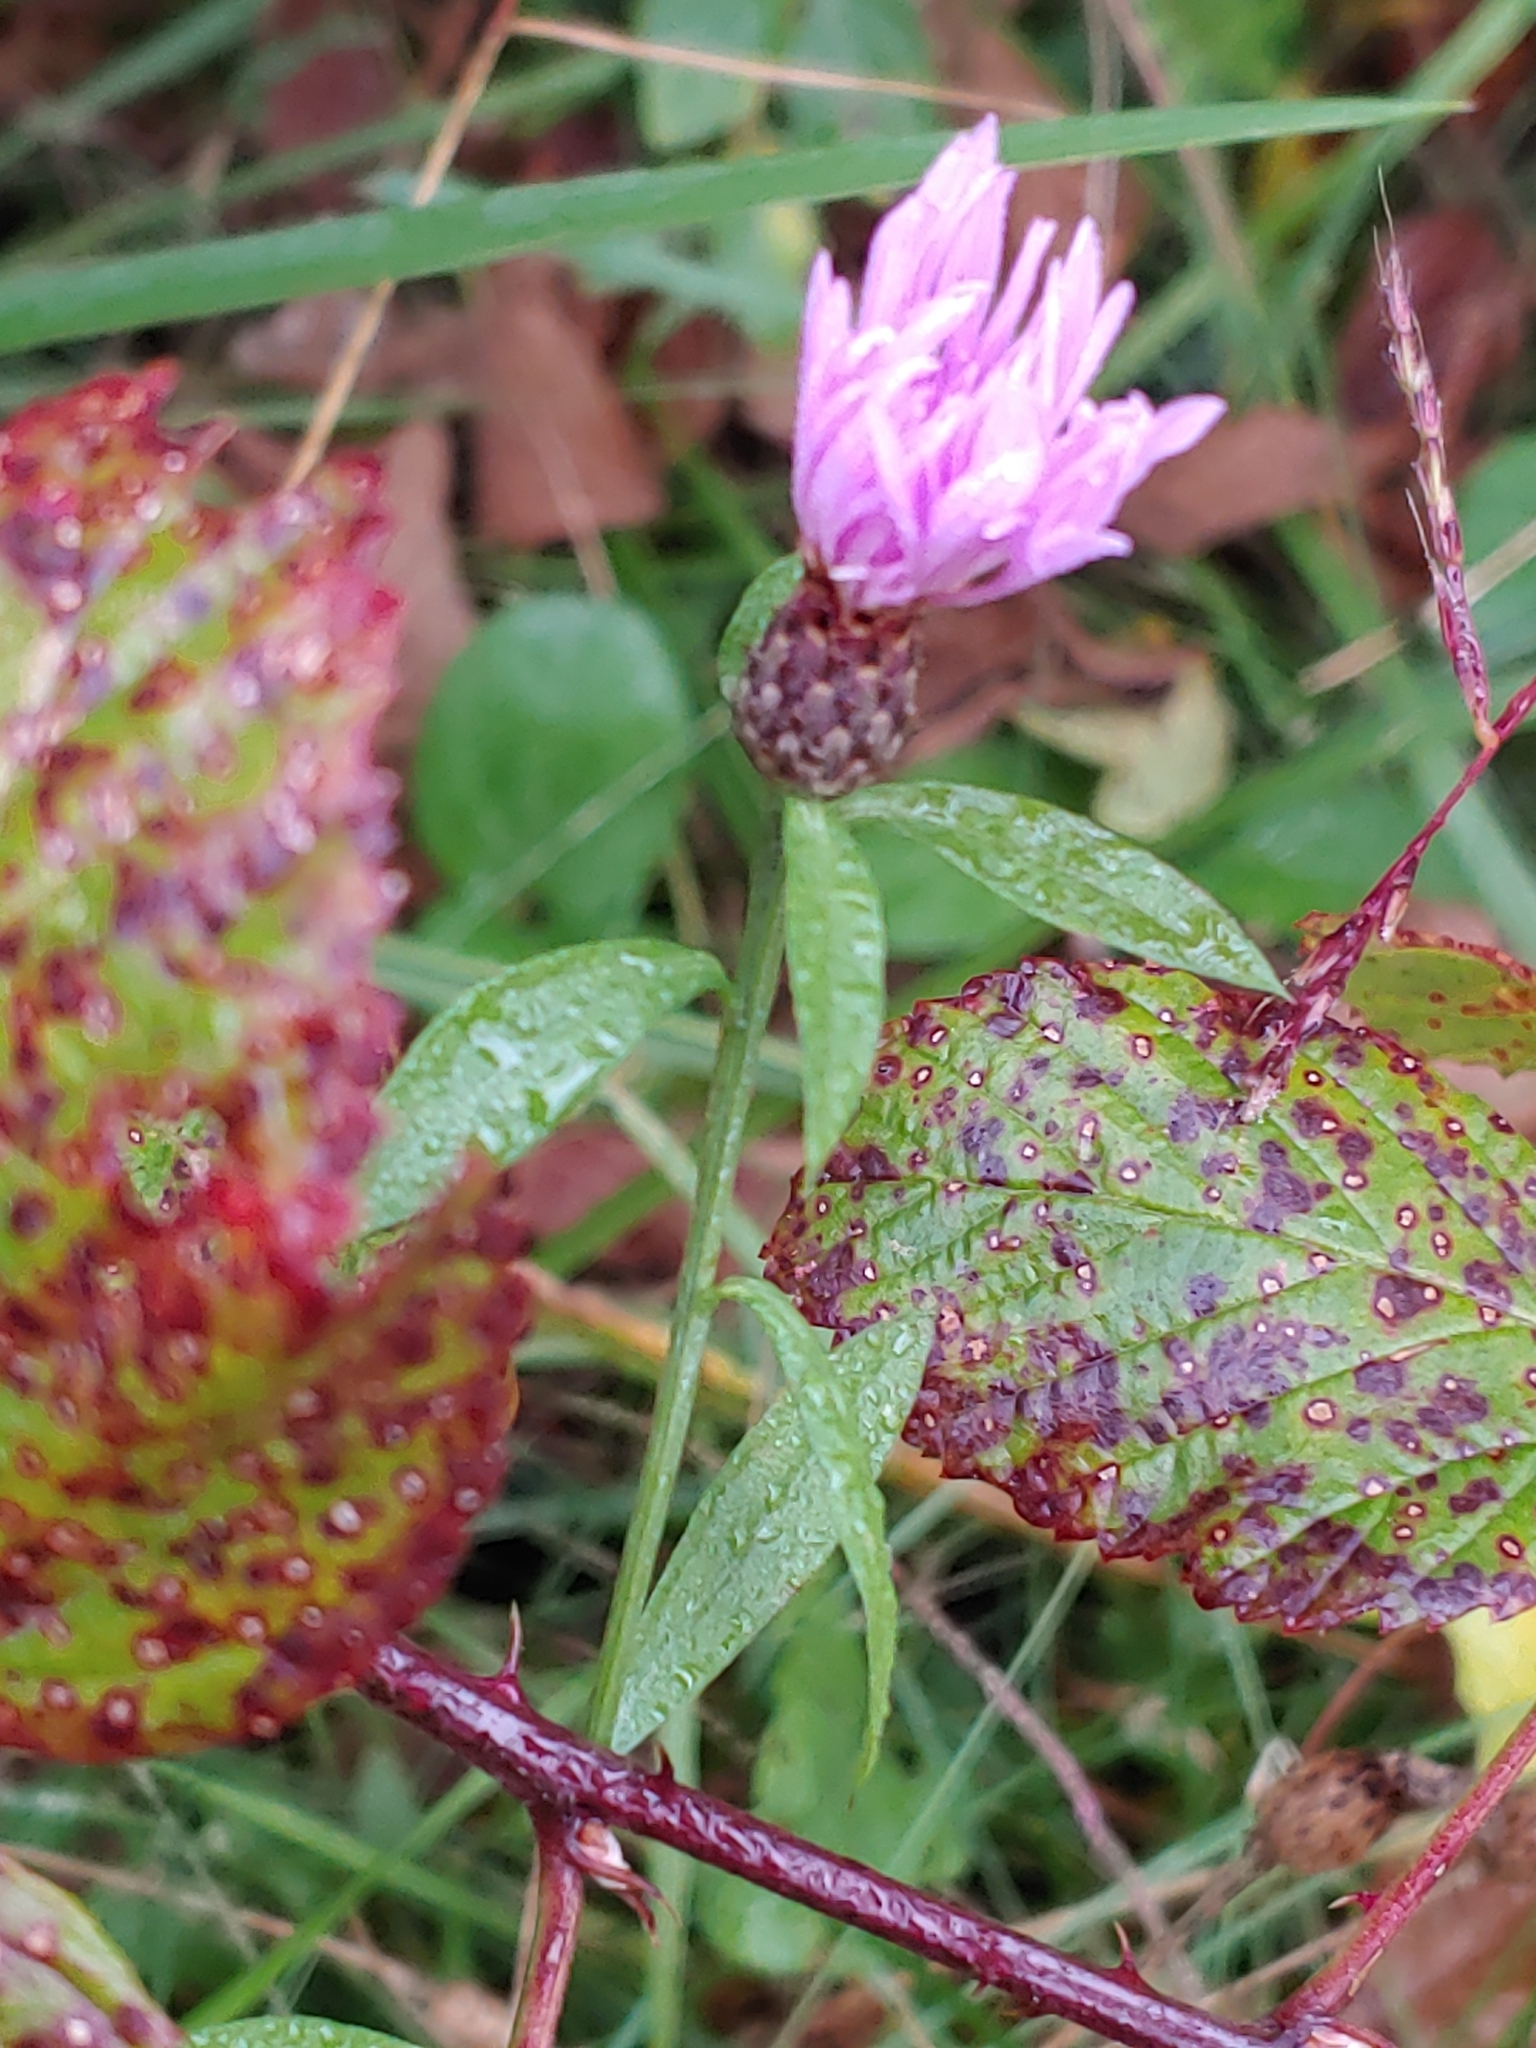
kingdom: Plantae
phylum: Tracheophyta
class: Magnoliopsida
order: Asterales
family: Asteraceae
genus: Centaurea
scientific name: Centaurea nigrescens
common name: Tyrol knapweed
